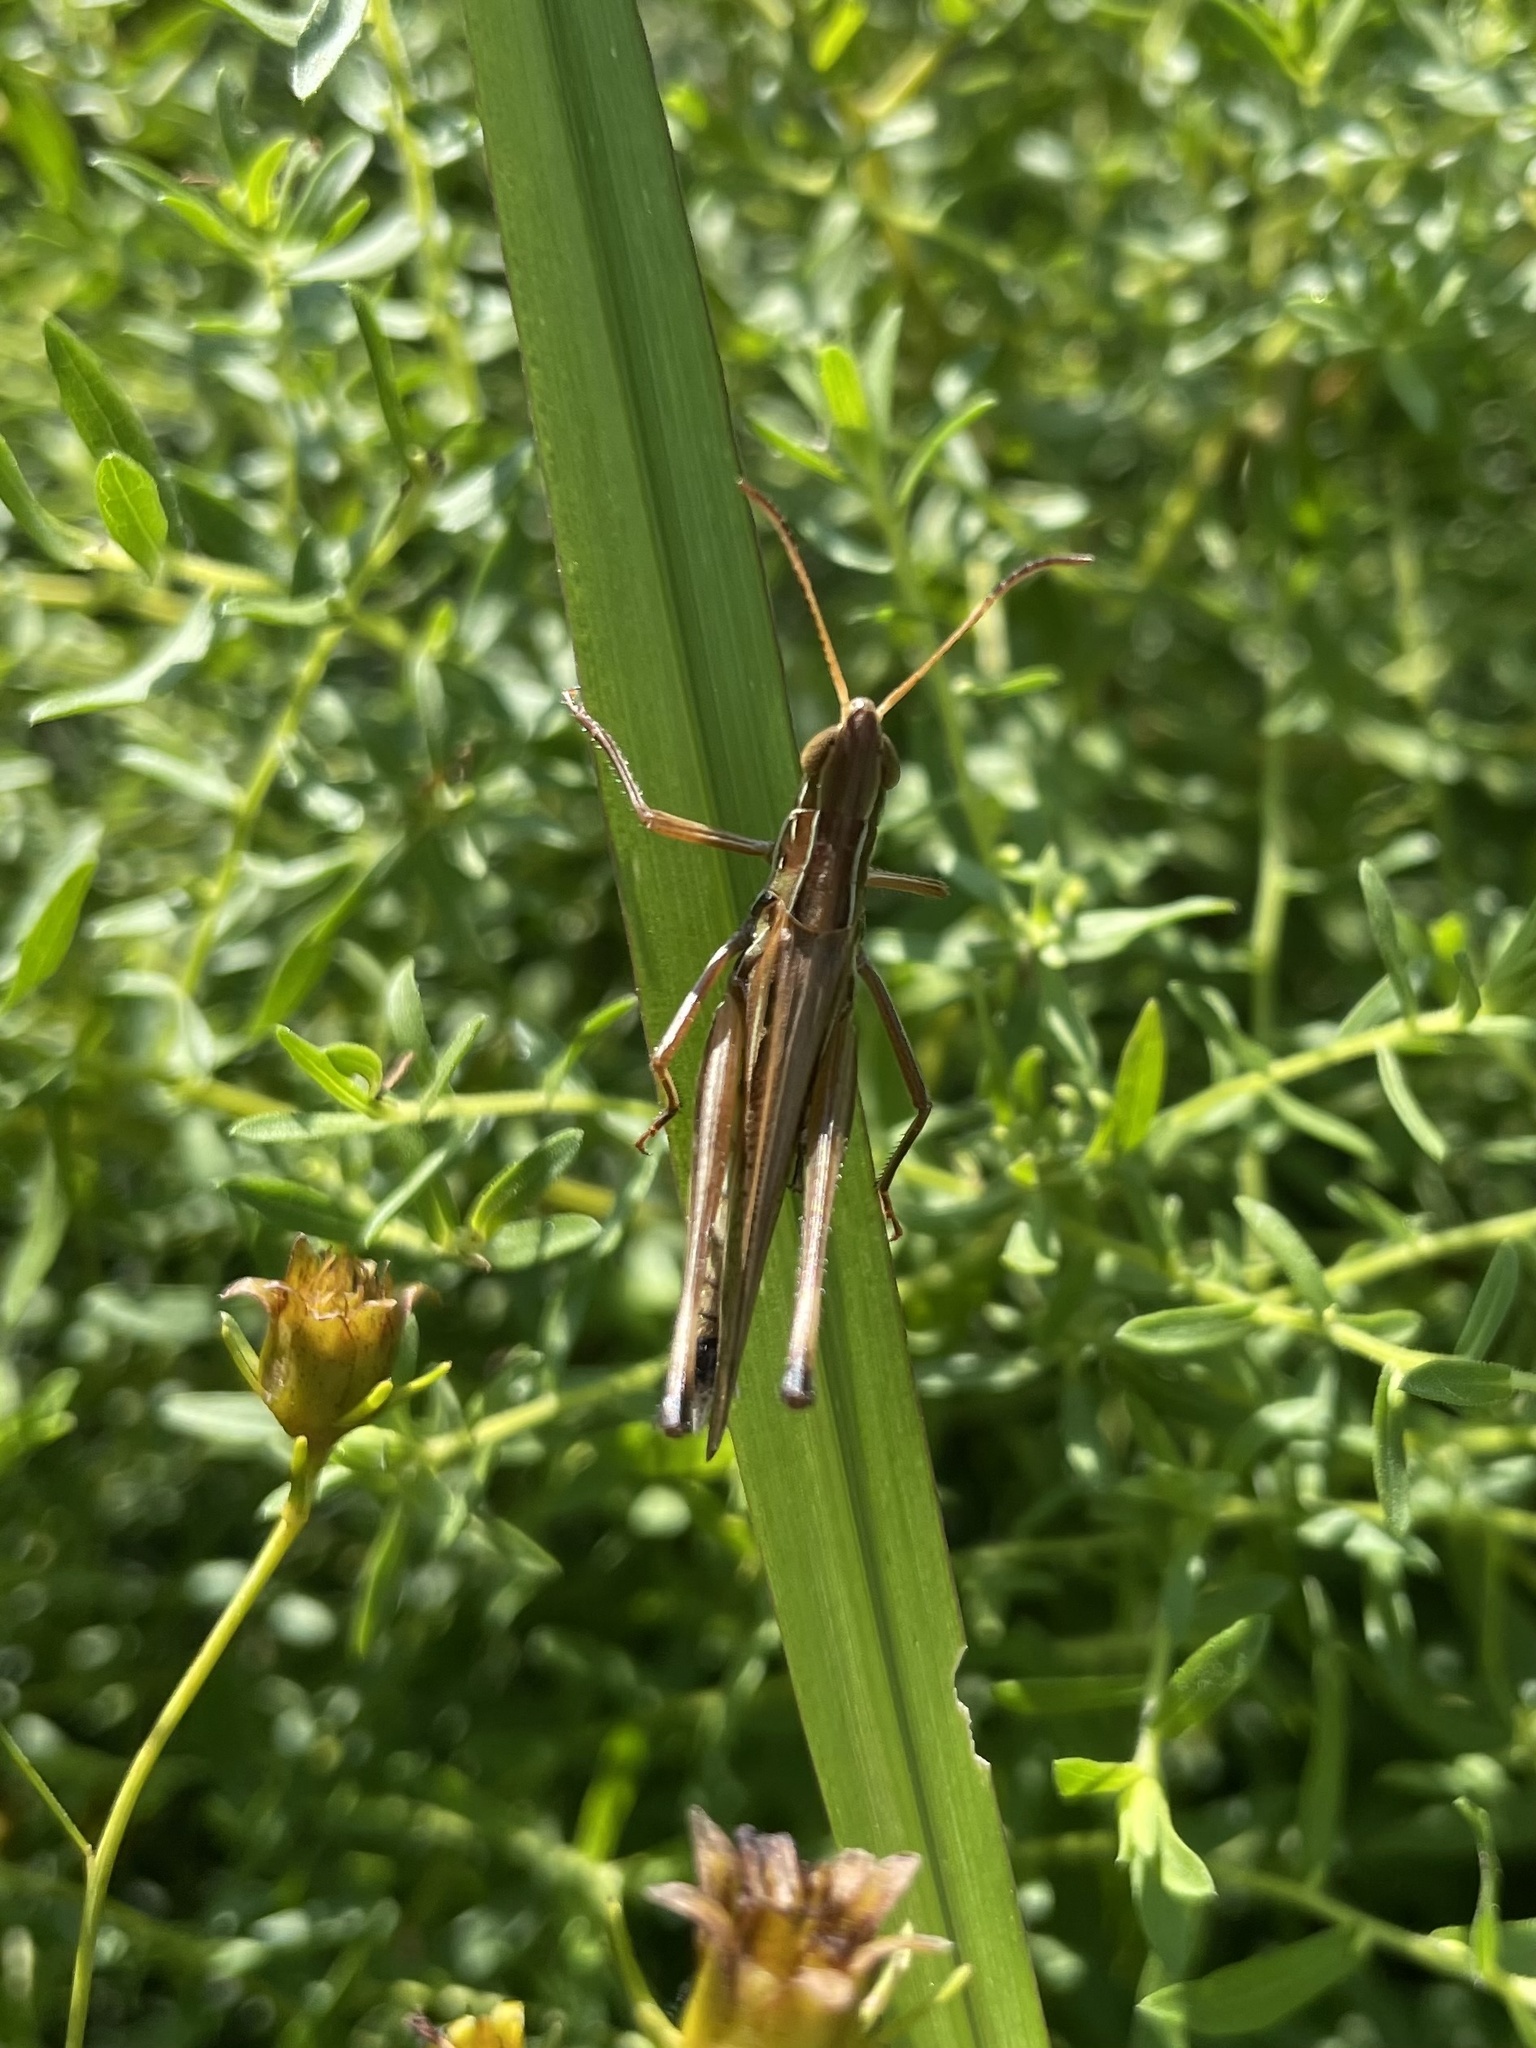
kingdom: Animalia
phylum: Arthropoda
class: Insecta
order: Orthoptera
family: Acrididae
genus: Syrbula
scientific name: Syrbula admirabilis
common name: Handsome grasshopper
